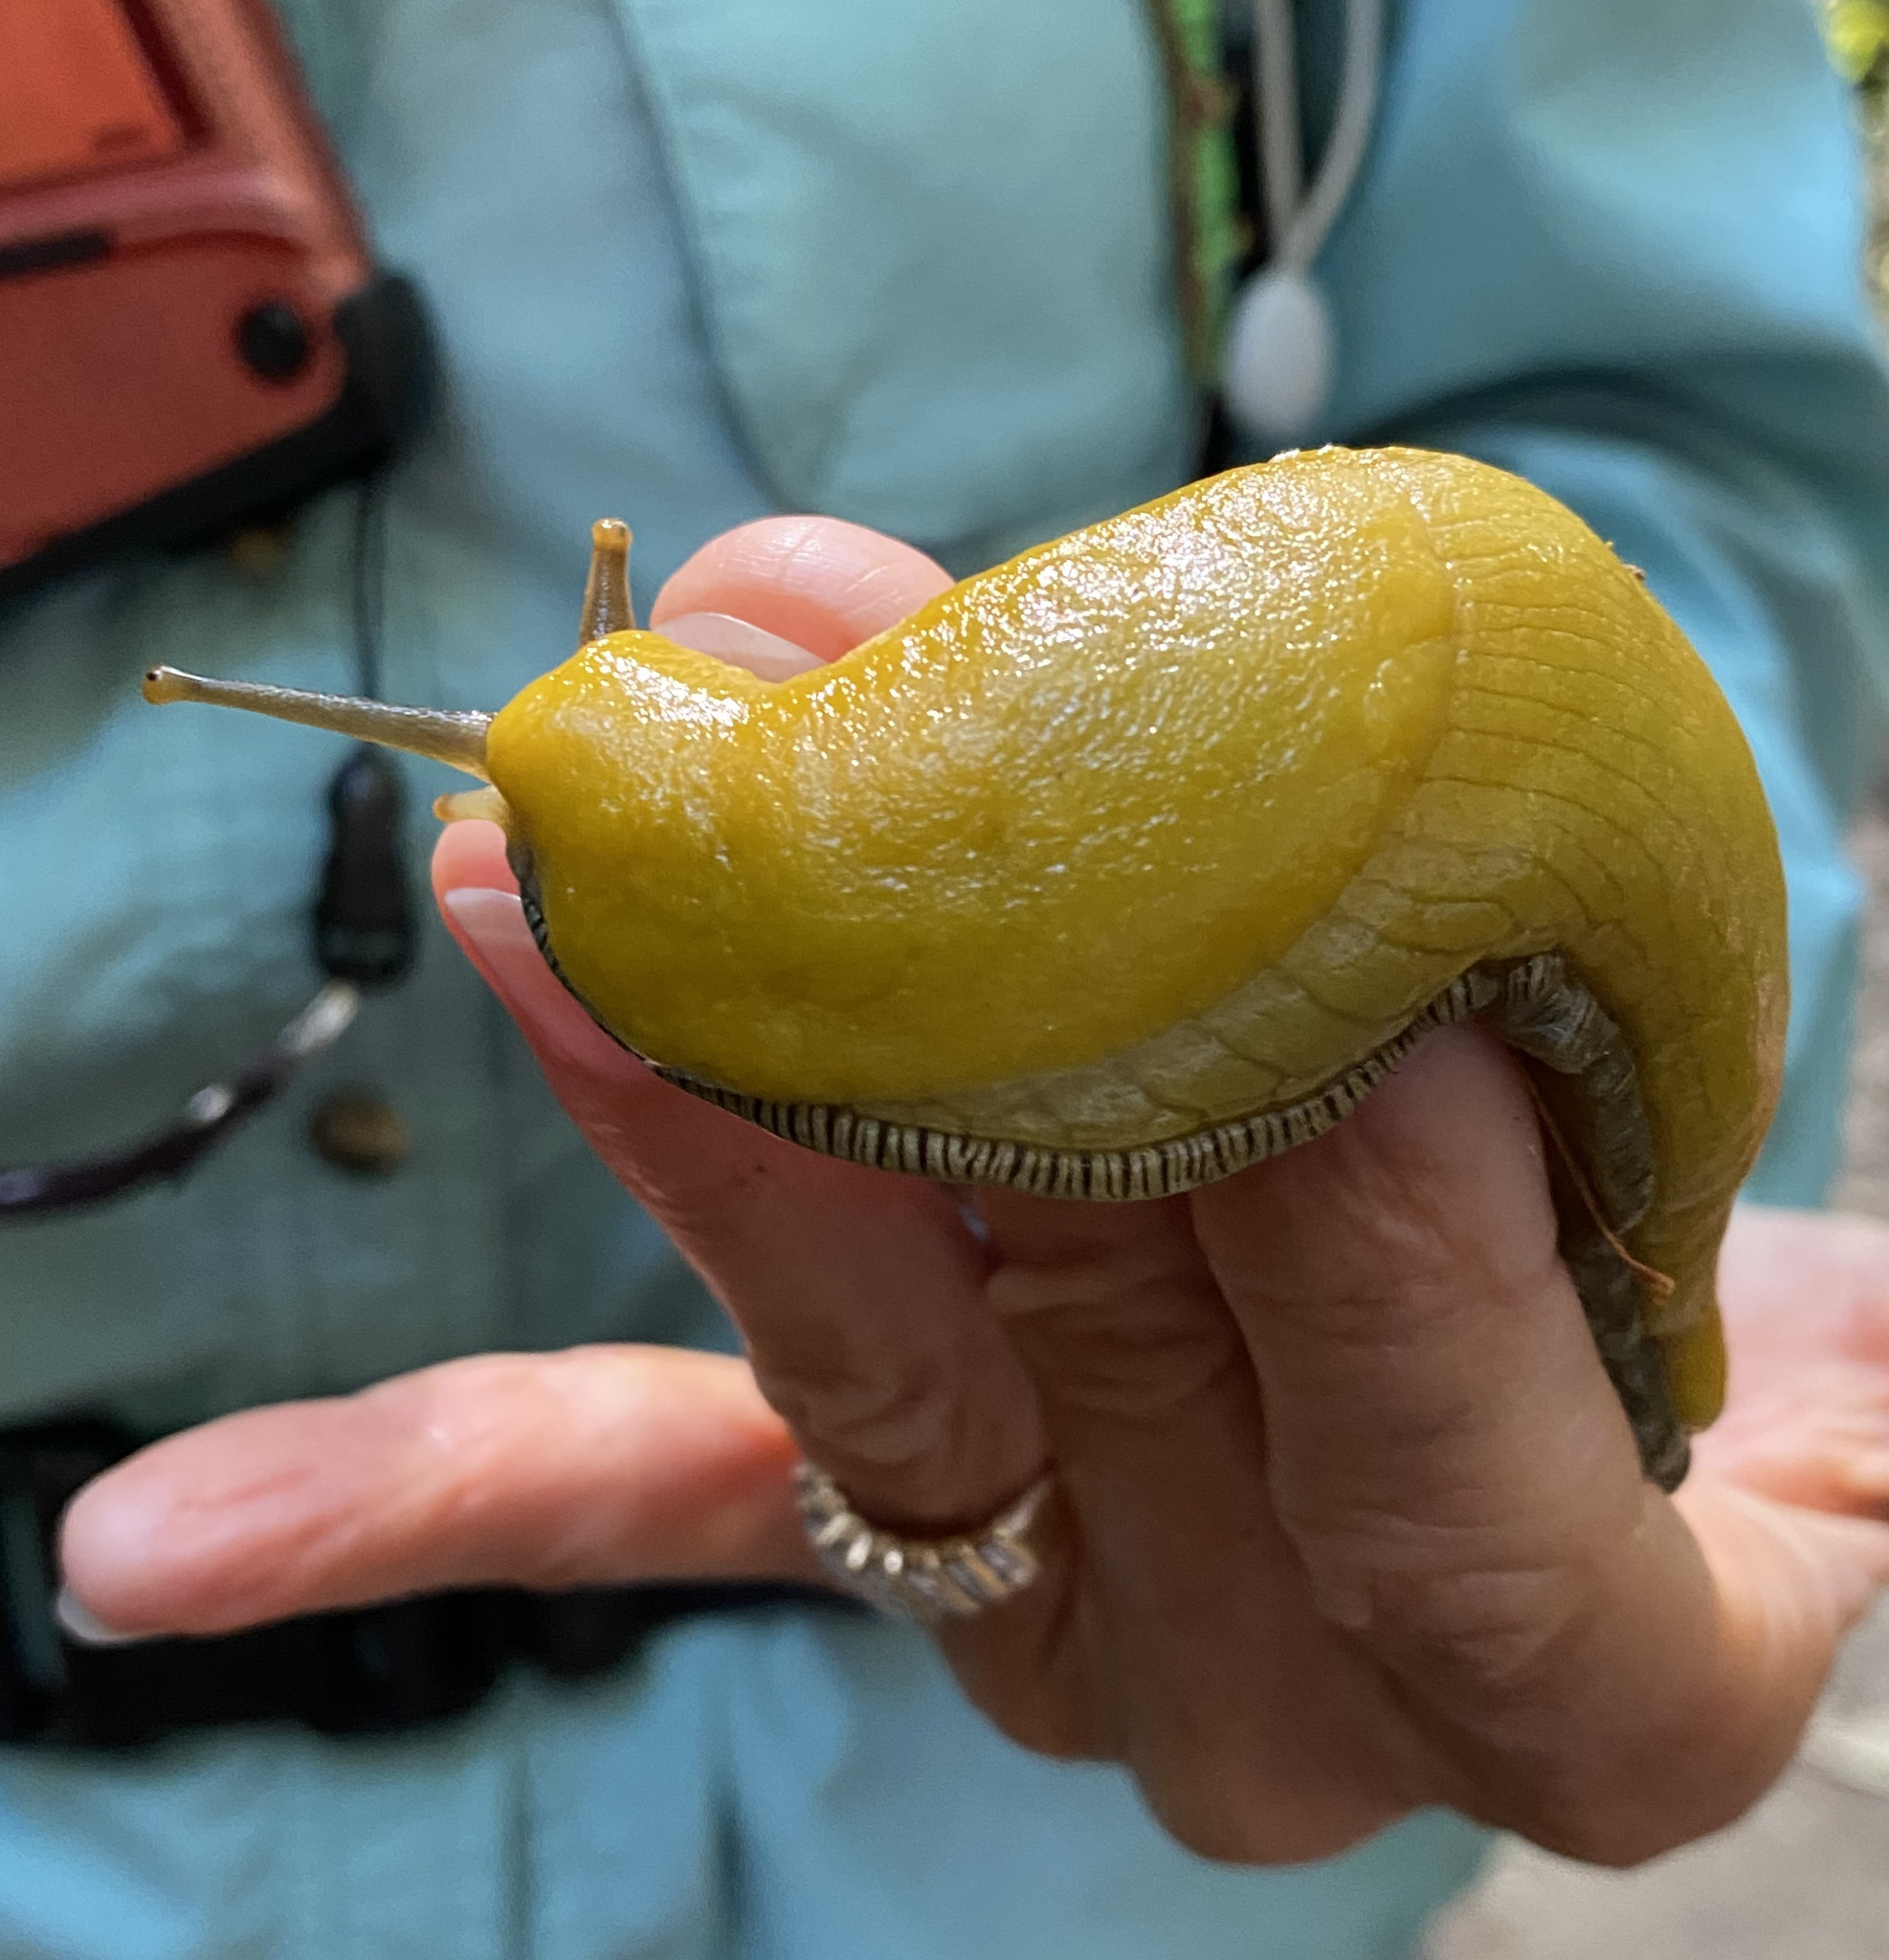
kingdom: Animalia
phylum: Mollusca
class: Gastropoda
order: Stylommatophora
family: Ariolimacidae
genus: Ariolimax
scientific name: Ariolimax dolichophallus
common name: Slender banana slug
